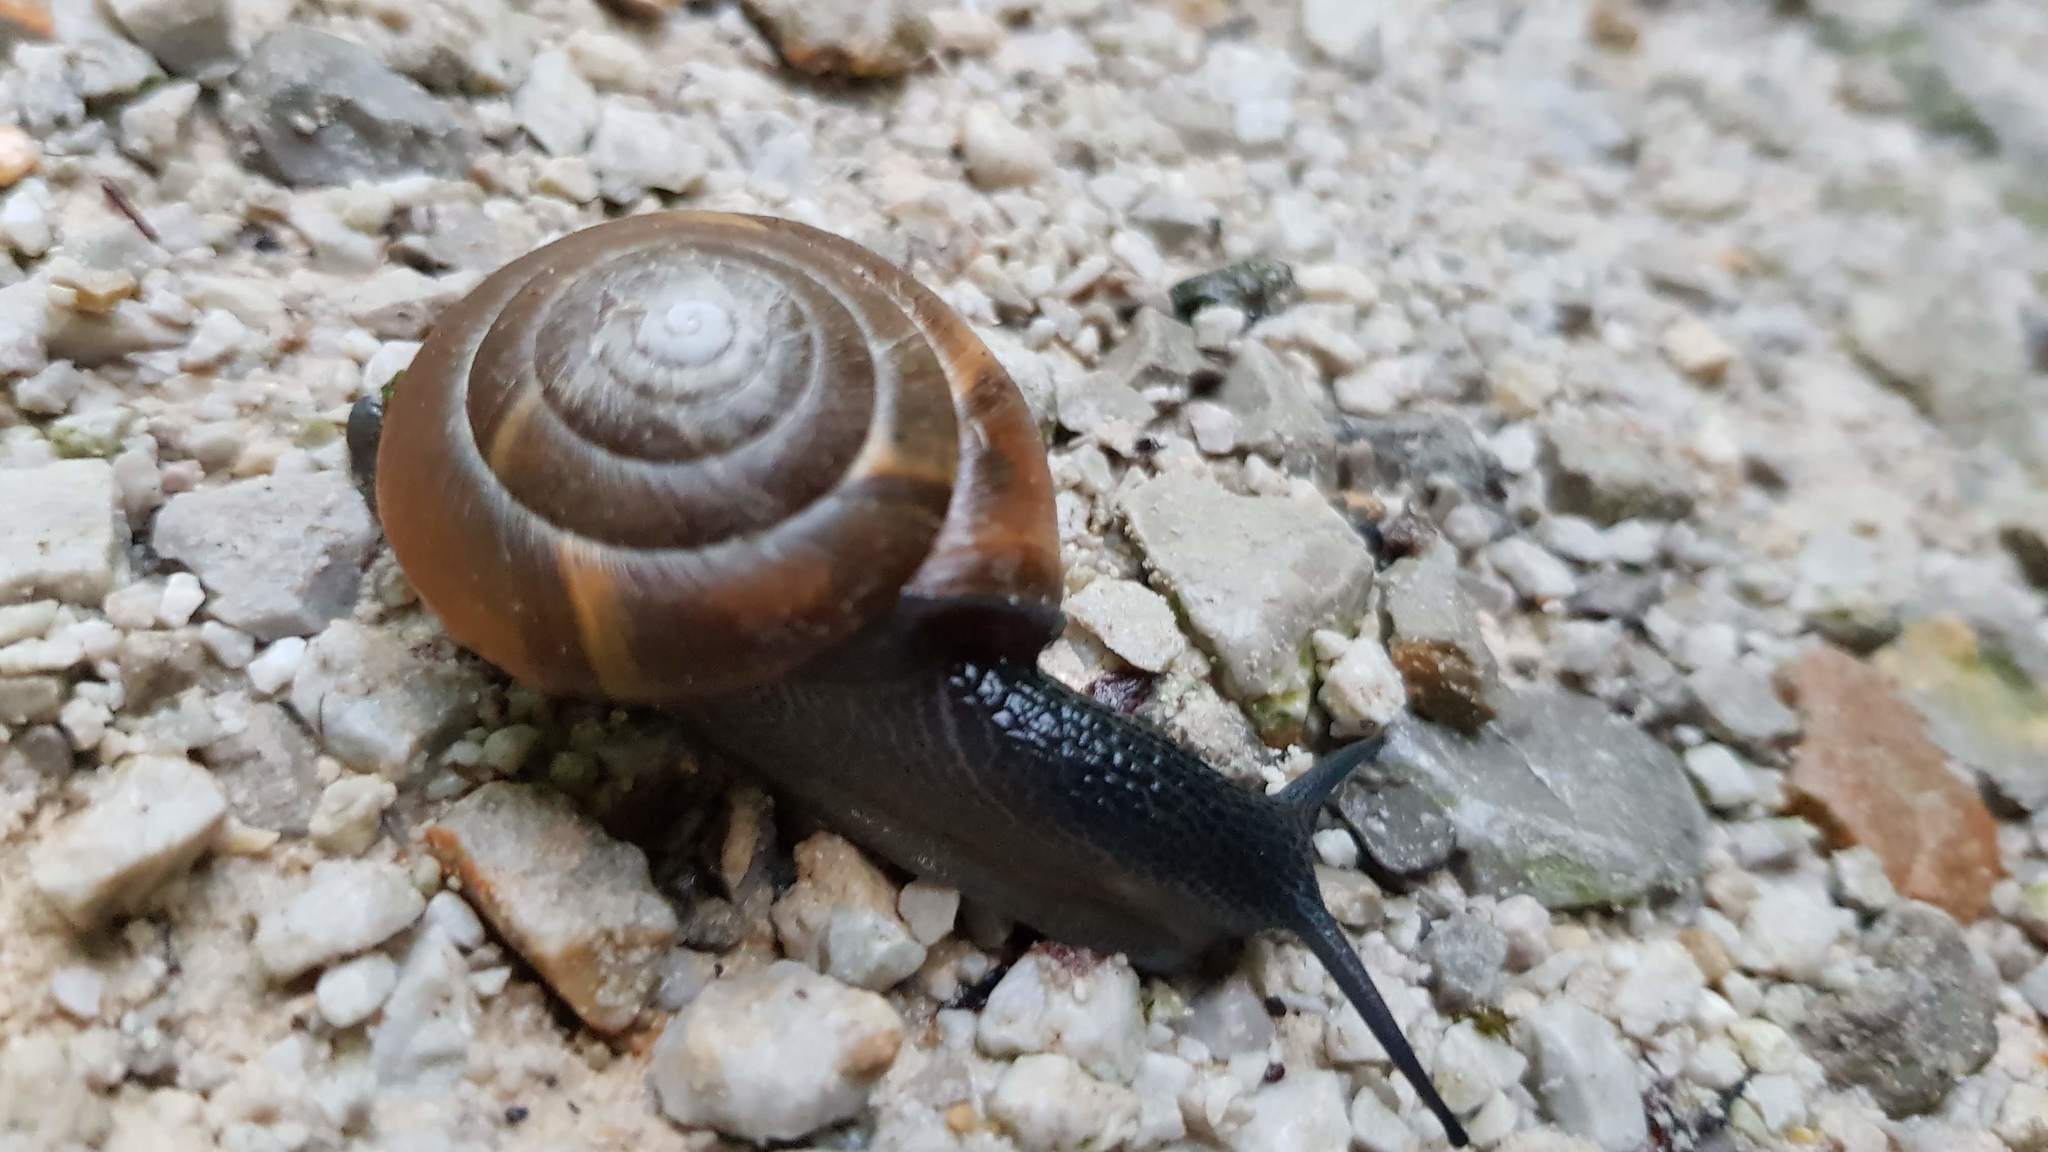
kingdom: Animalia
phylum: Mollusca
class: Gastropoda
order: Stylommatophora
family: Zonitidae
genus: Aegopis
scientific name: Aegopis verticillus
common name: Giant glass snail
